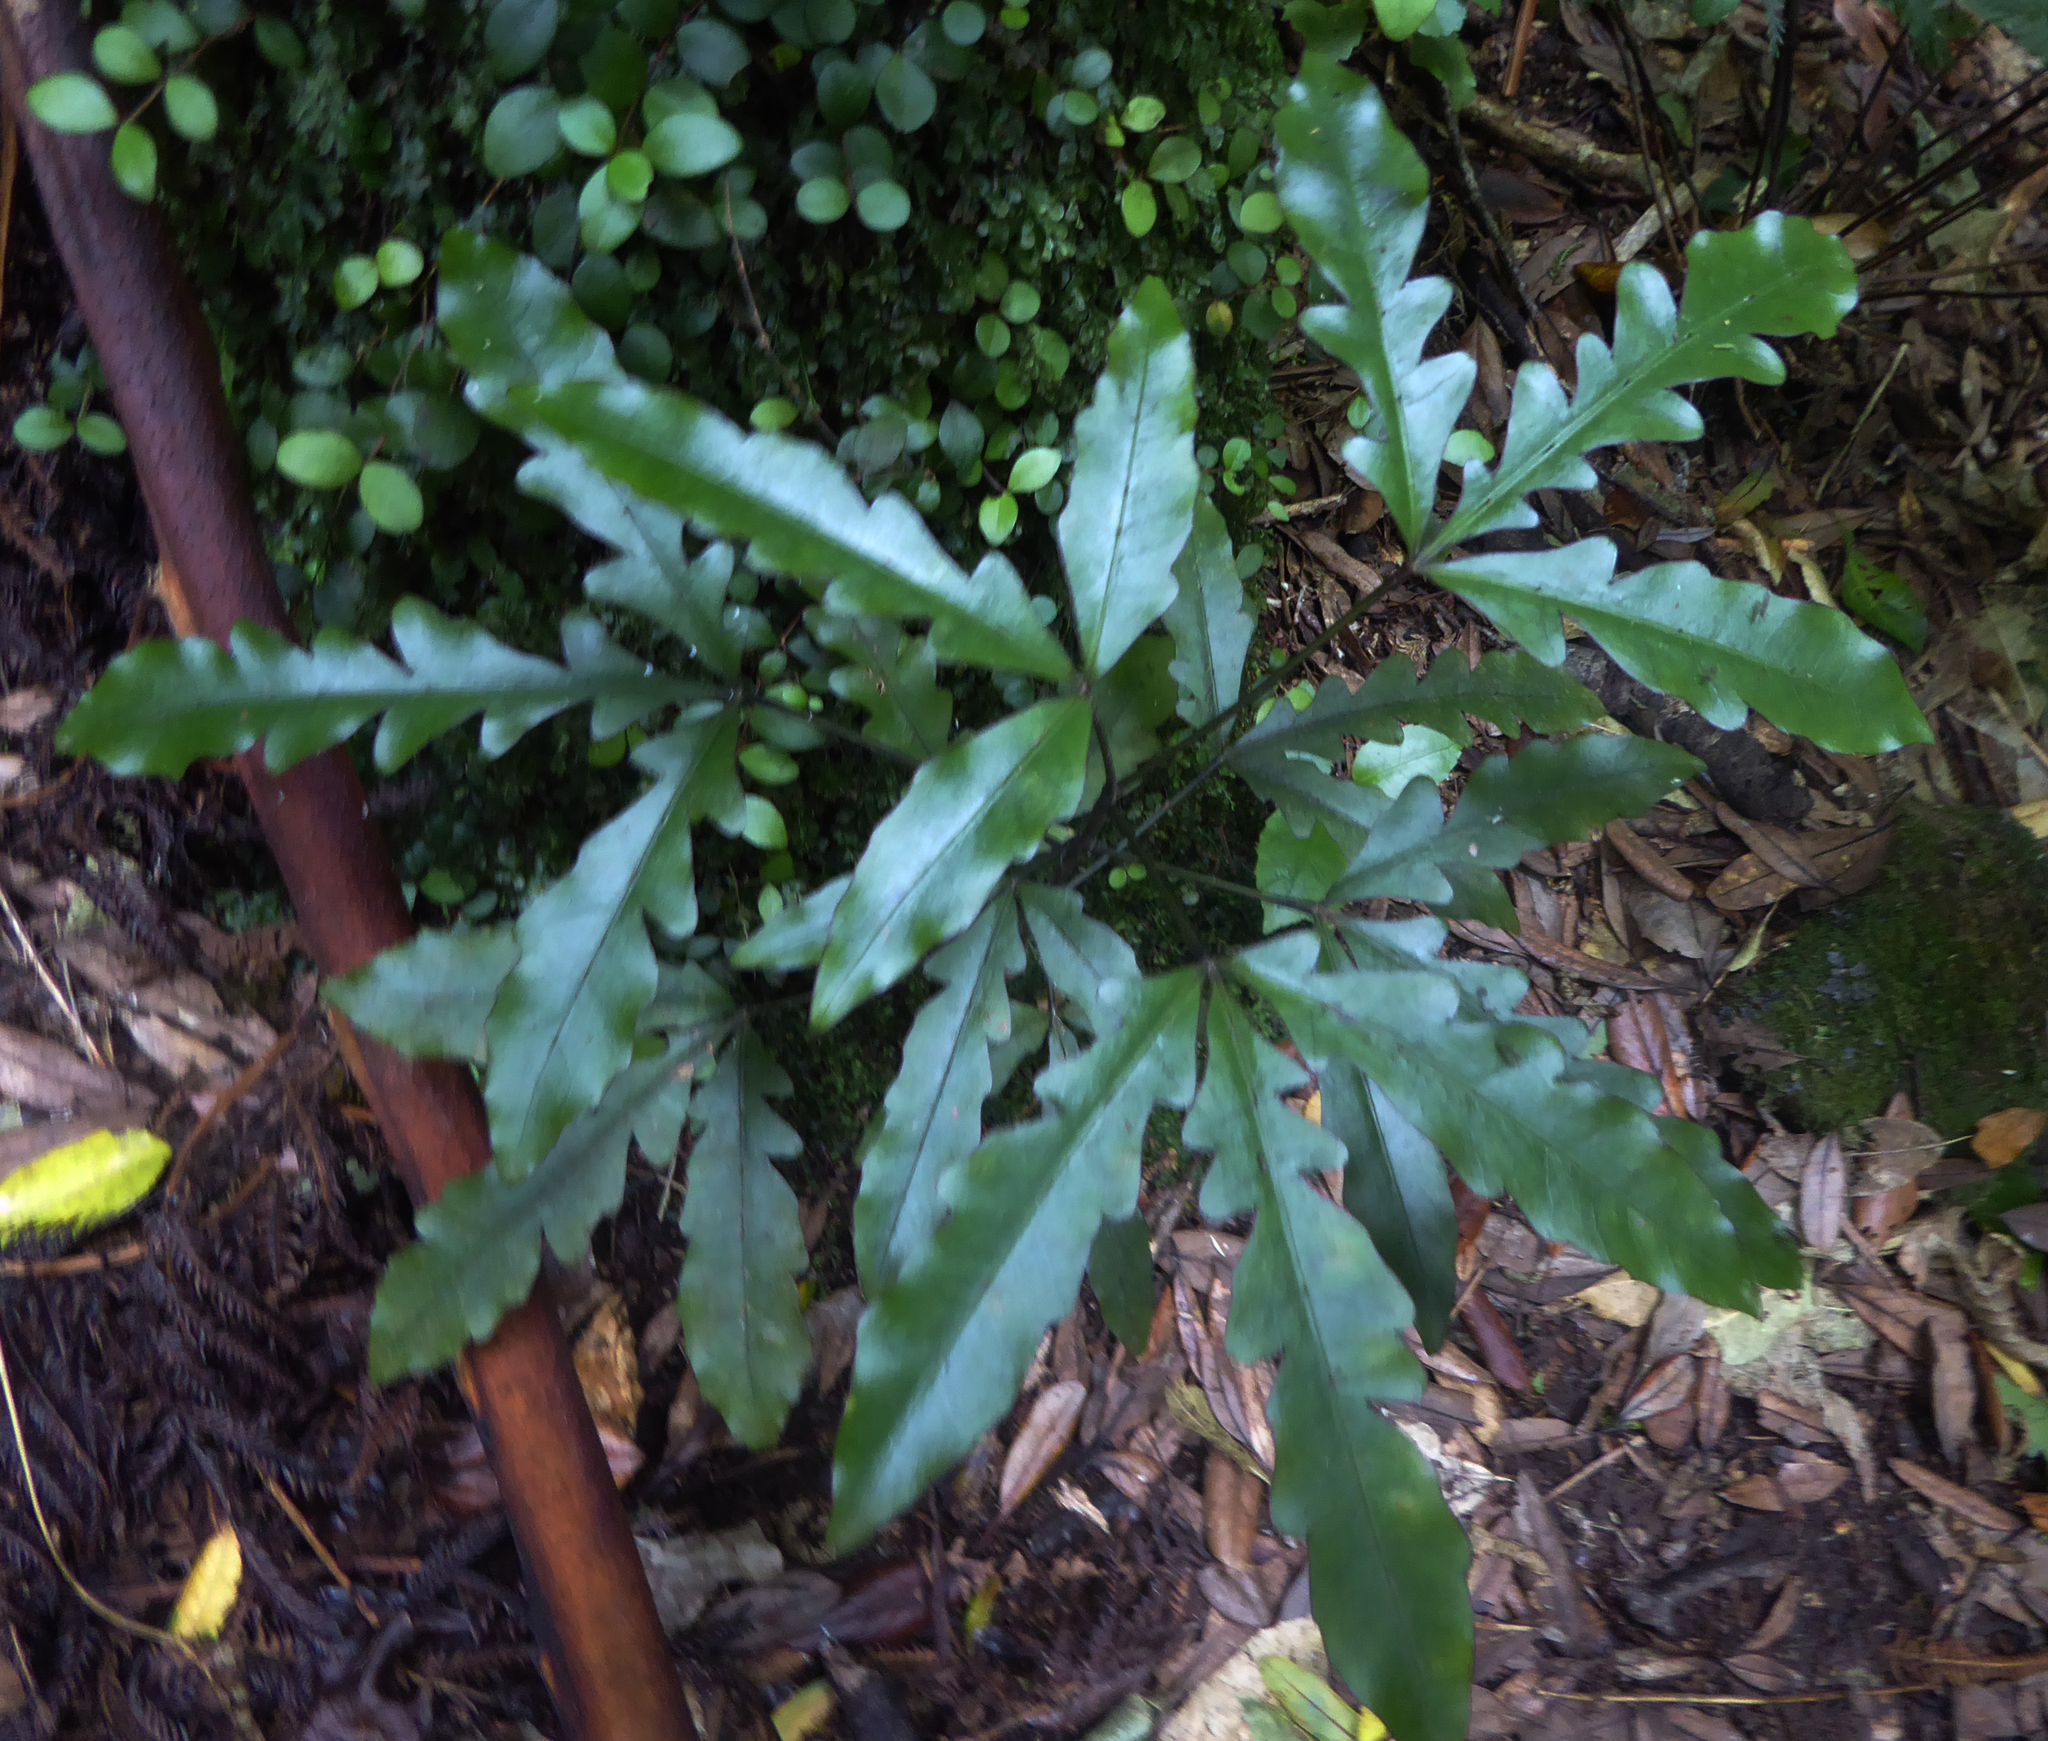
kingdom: Plantae
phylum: Tracheophyta
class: Magnoliopsida
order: Apiales
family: Araliaceae
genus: Raukaua
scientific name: Raukaua edgerleyi
